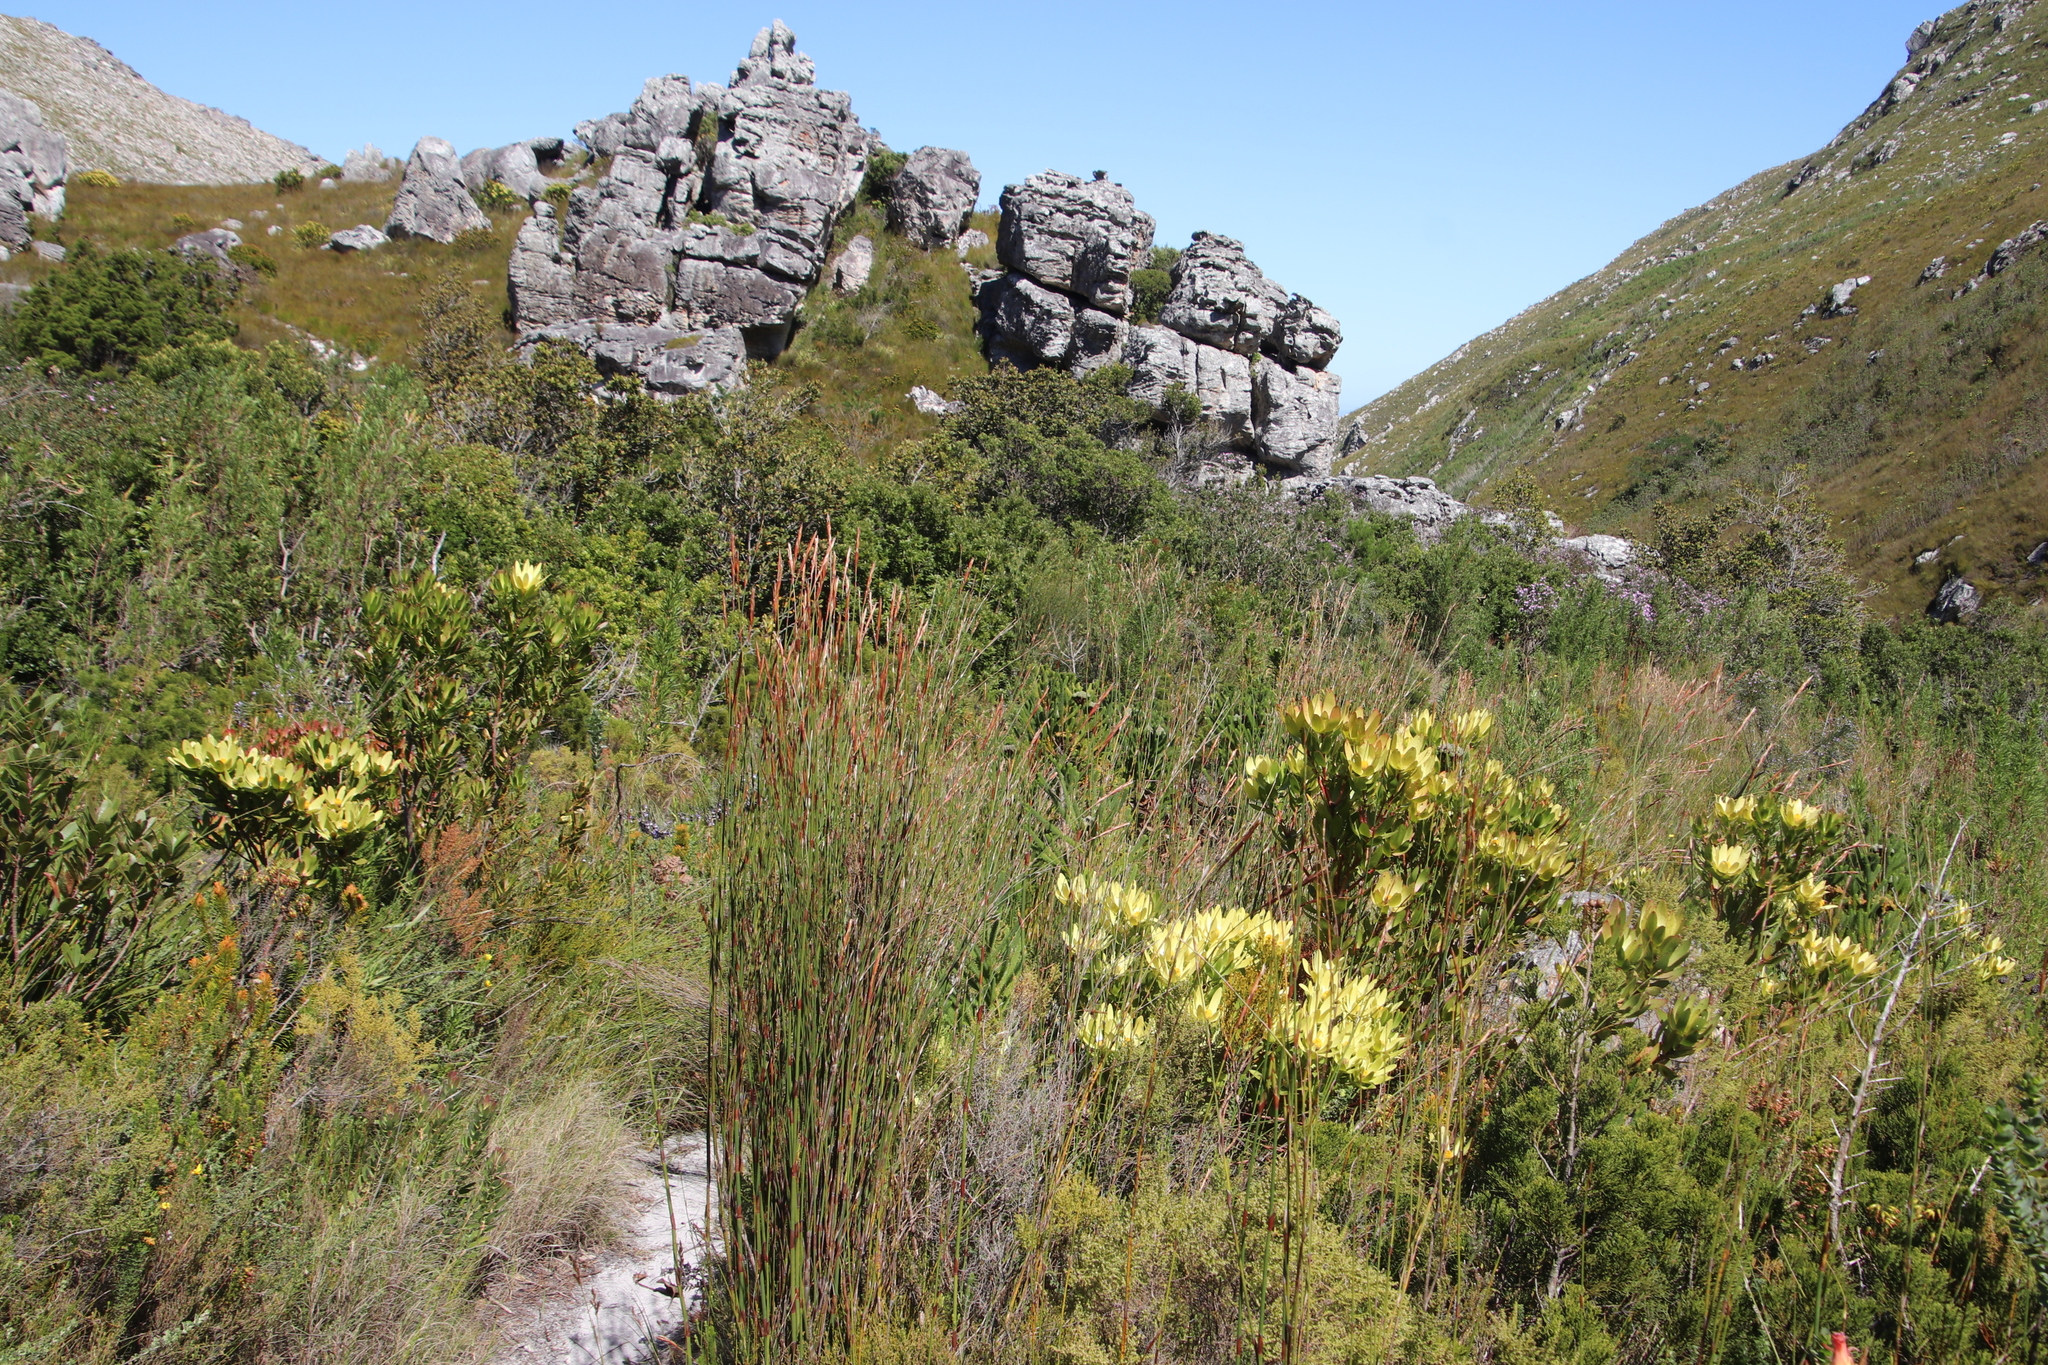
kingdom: Plantae
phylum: Tracheophyta
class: Liliopsida
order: Poales
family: Restionaceae
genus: Restio
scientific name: Restio dispar
